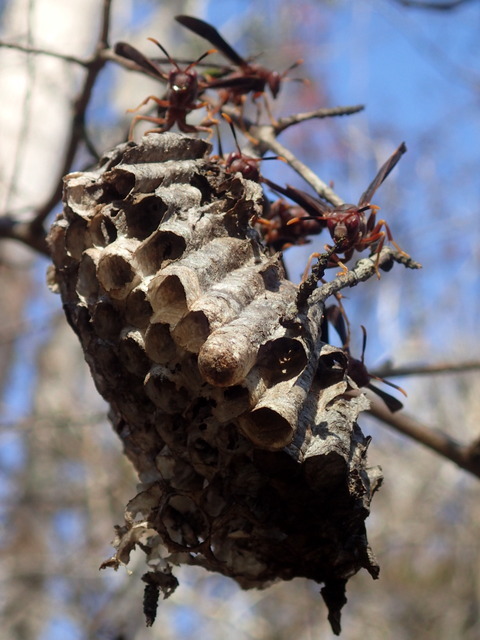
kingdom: Animalia
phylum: Arthropoda
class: Insecta
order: Hymenoptera
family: Eumenidae
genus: Polistes
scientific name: Polistes annularis
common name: Ringed paper wasp
